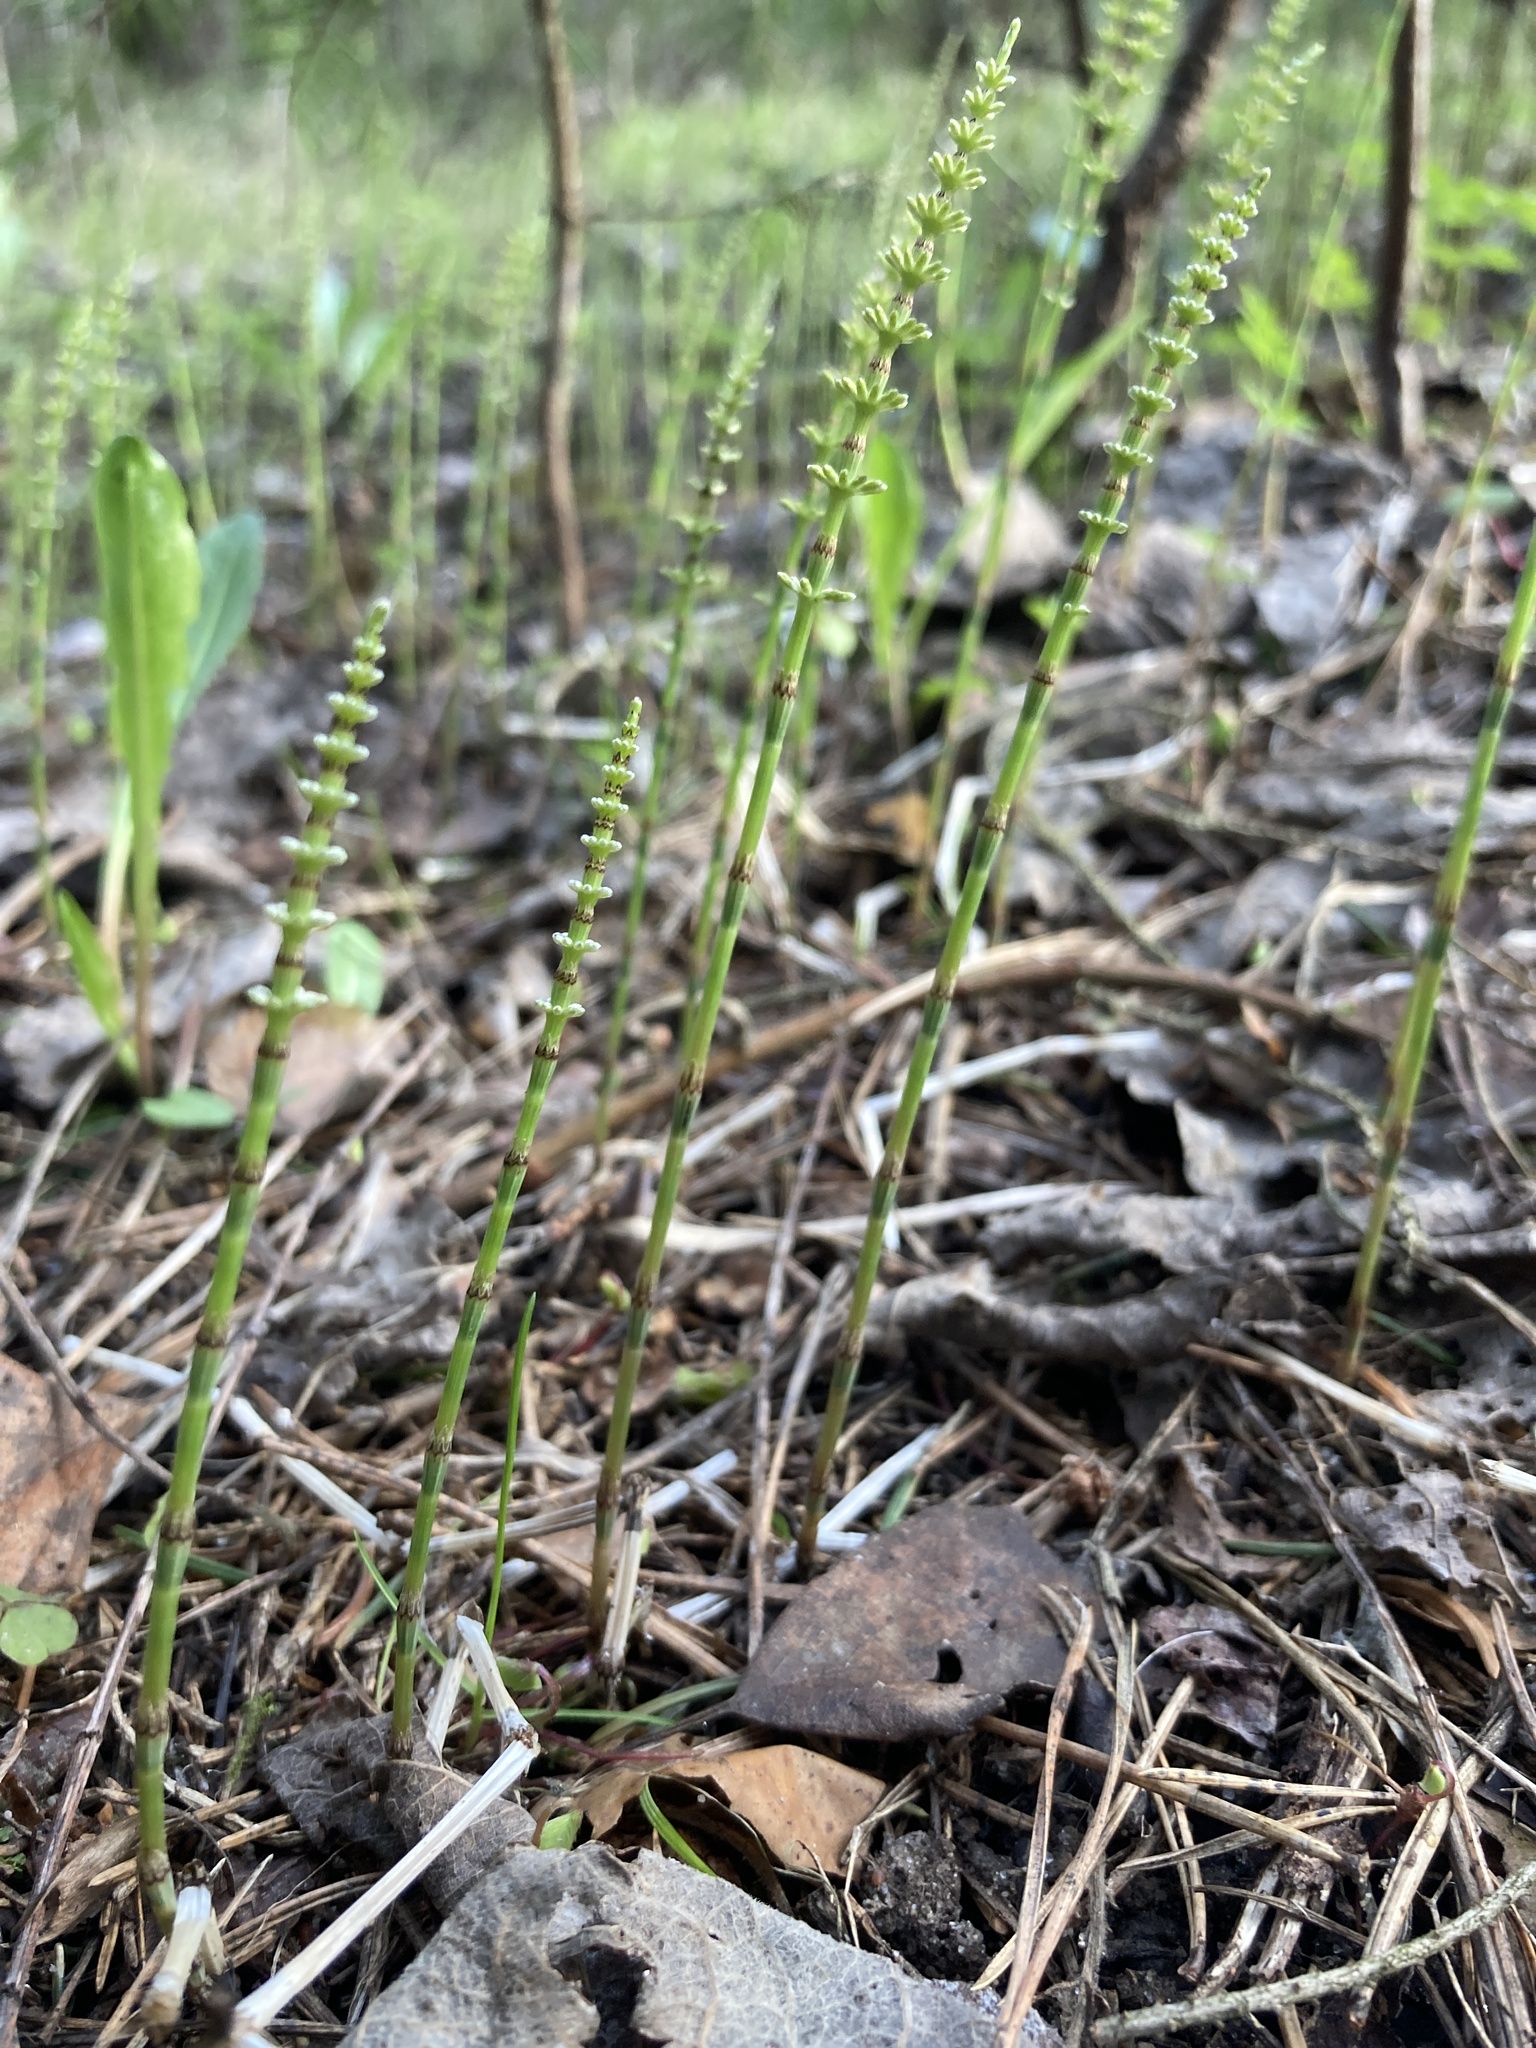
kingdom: Plantae
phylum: Tracheophyta
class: Polypodiopsida
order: Equisetales
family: Equisetaceae
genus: Equisetum
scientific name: Equisetum pratense
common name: Meadow horsetail
